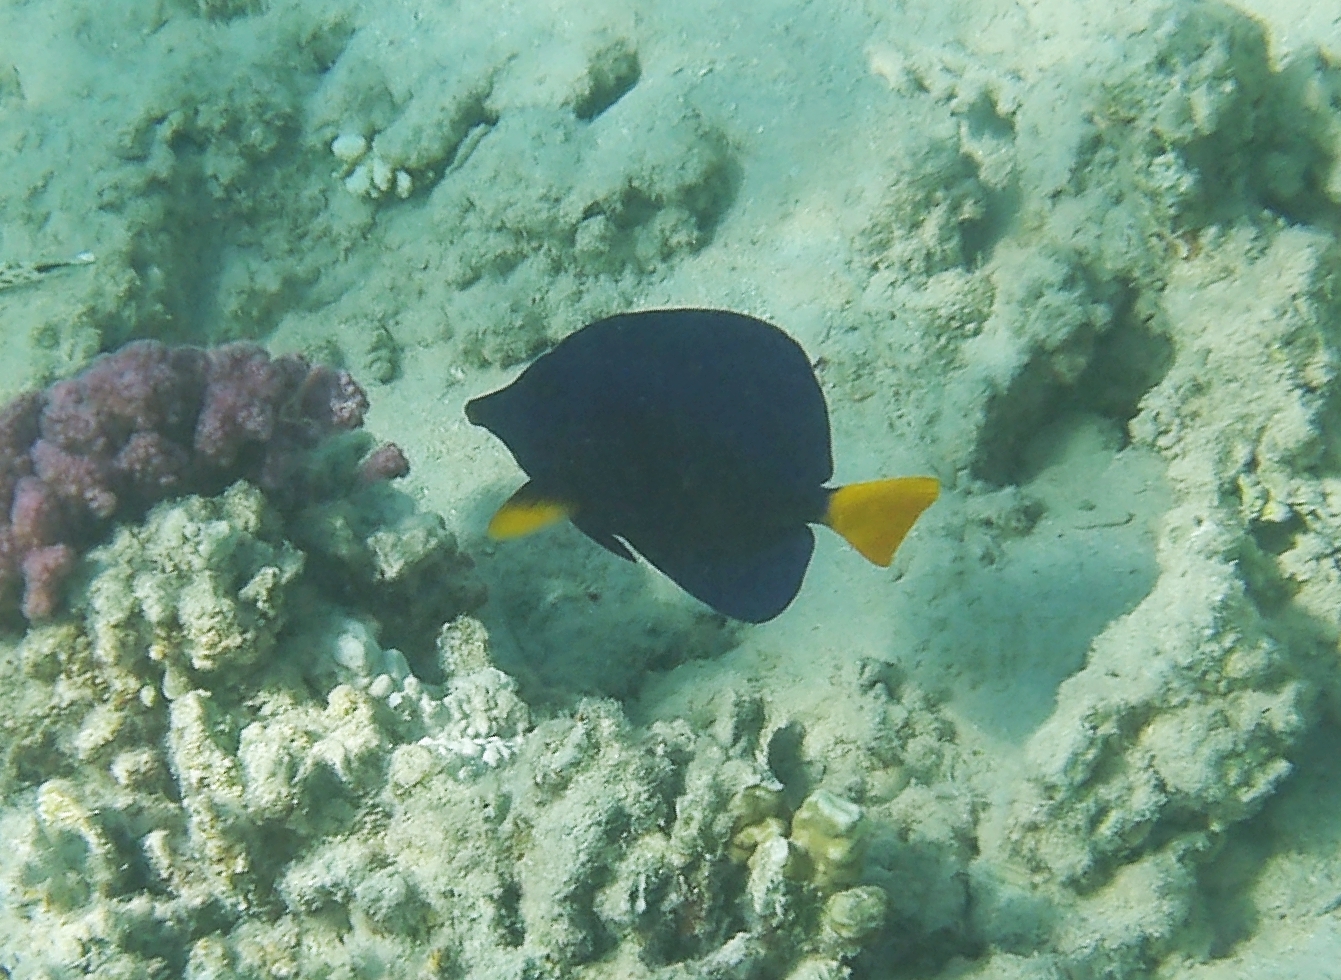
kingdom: Animalia
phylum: Chordata
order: Perciformes
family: Acanthuridae
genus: Zebrasoma
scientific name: Zebrasoma xanthurum
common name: Purple tang
